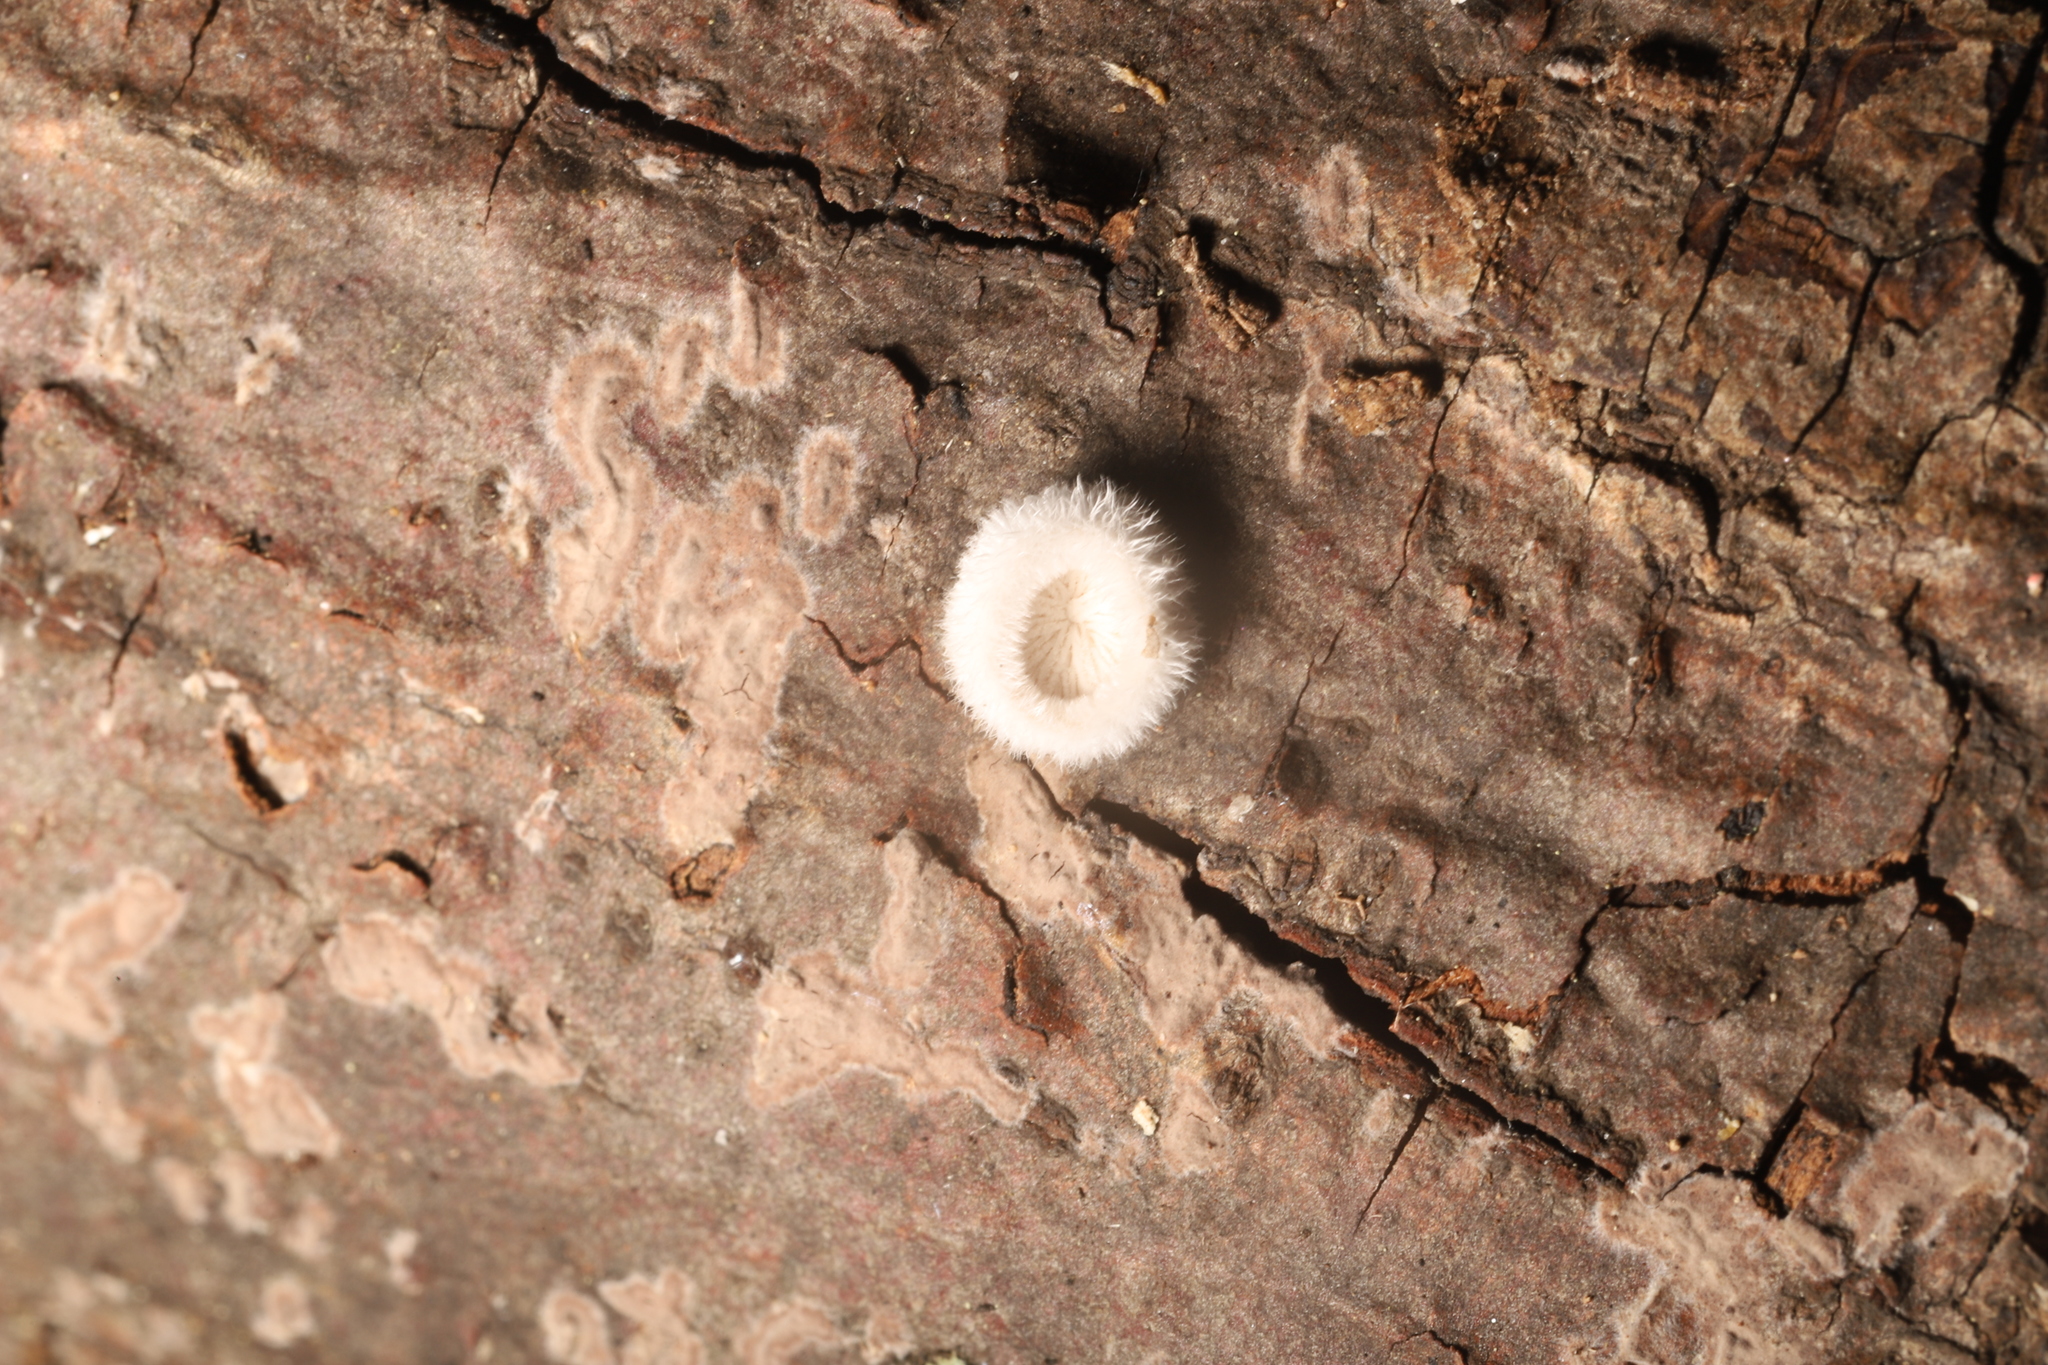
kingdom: Fungi
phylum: Basidiomycota
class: Agaricomycetes
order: Agaricales
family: Schizophyllaceae
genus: Schizophyllum
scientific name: Schizophyllum commune
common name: Common porecrust
